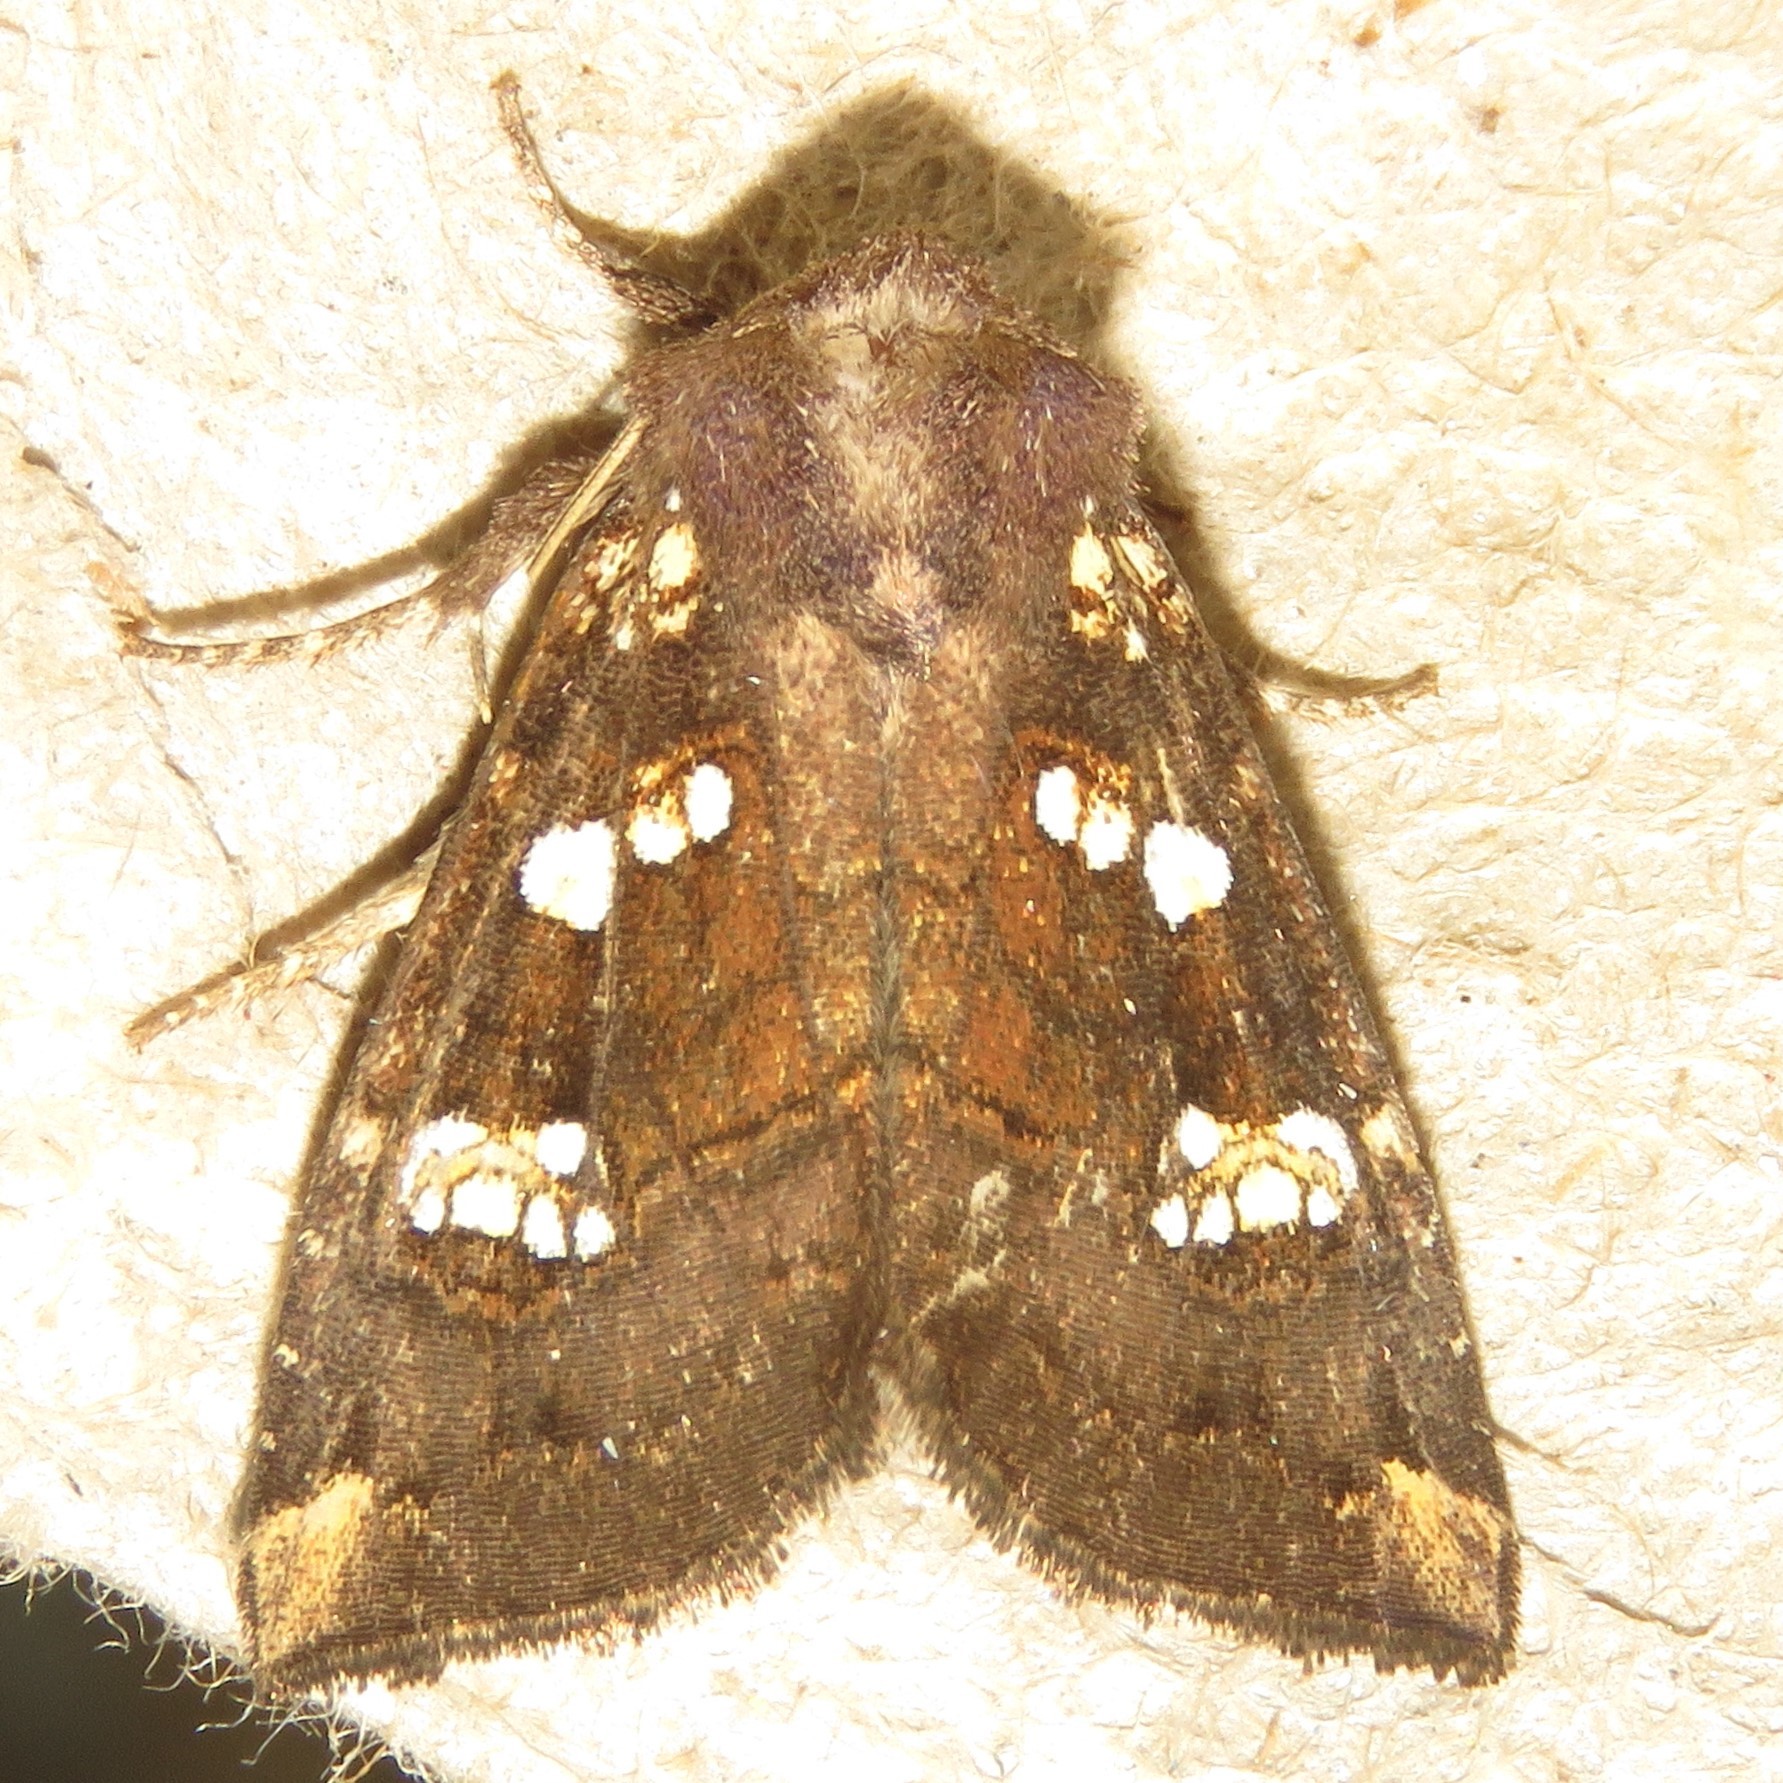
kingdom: Animalia
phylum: Arthropoda
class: Insecta
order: Lepidoptera
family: Noctuidae
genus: Papaipema
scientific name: Papaipema unimoda
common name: Meadow rue borer moth
